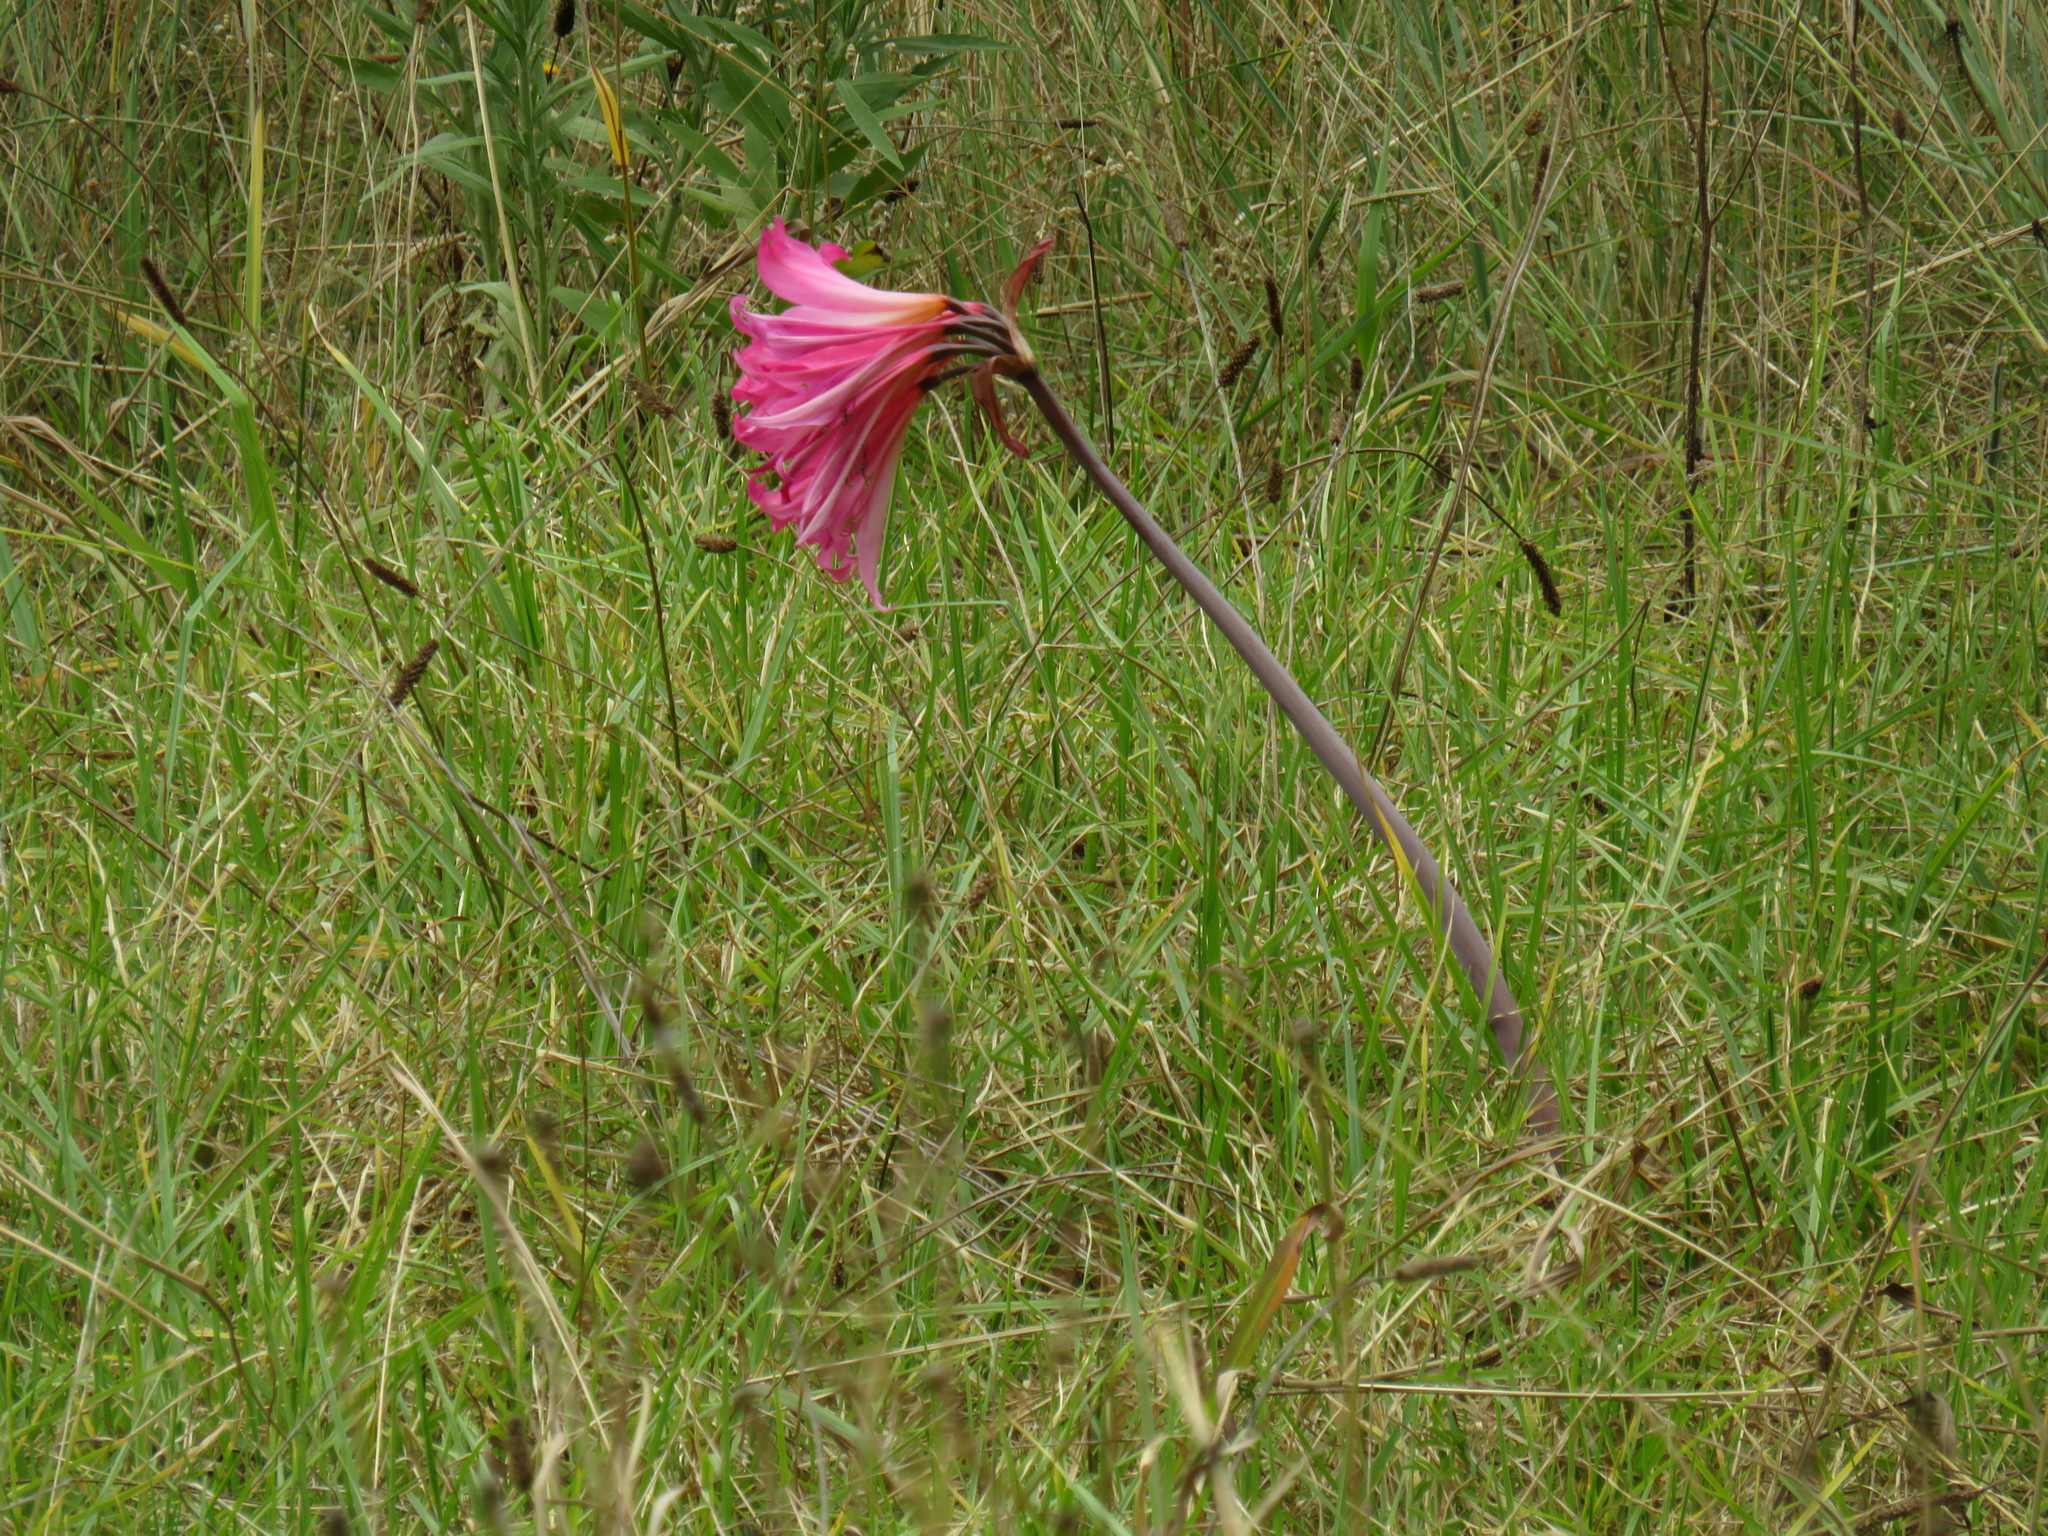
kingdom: Plantae
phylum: Tracheophyta
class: Liliopsida
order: Asparagales
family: Amaryllidaceae
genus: Amaryllis
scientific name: Amaryllis belladonna
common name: Jersey lily
